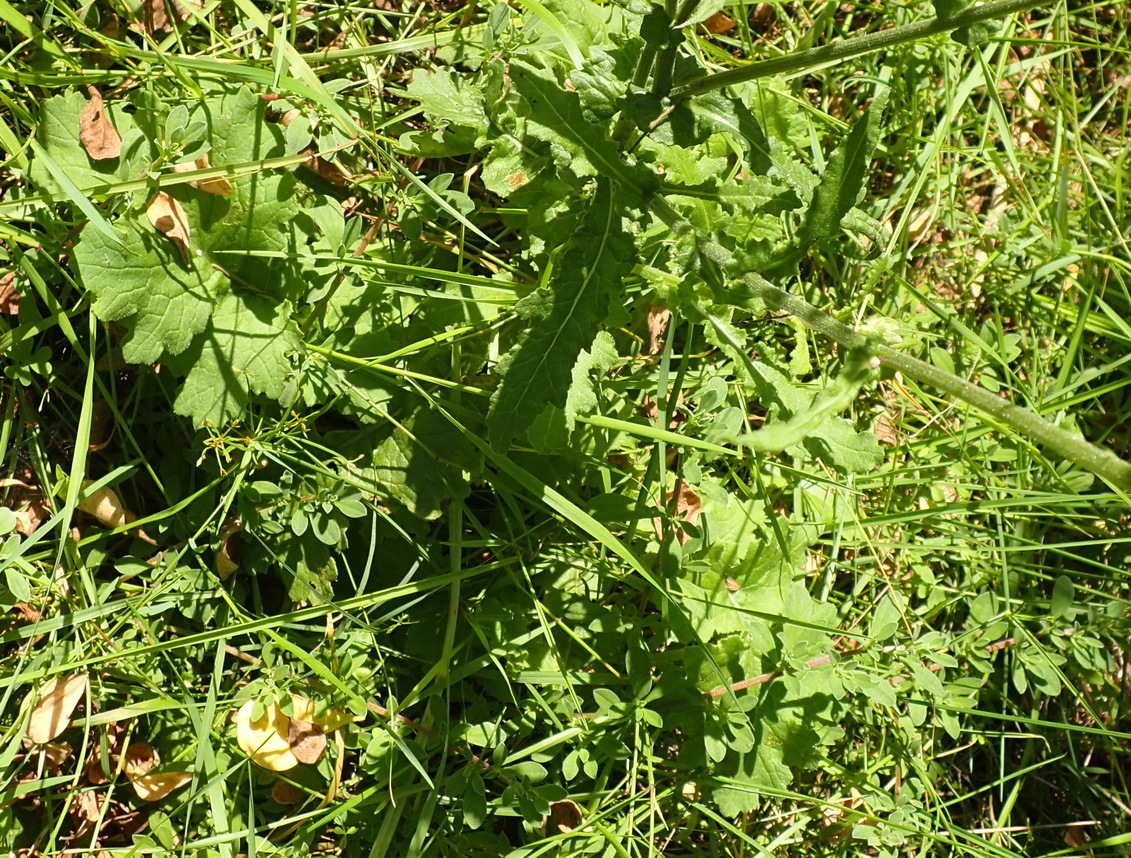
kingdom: Plantae
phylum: Tracheophyta
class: Magnoliopsida
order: Asterales
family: Asteraceae
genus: Senecio
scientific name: Senecio purpureus
